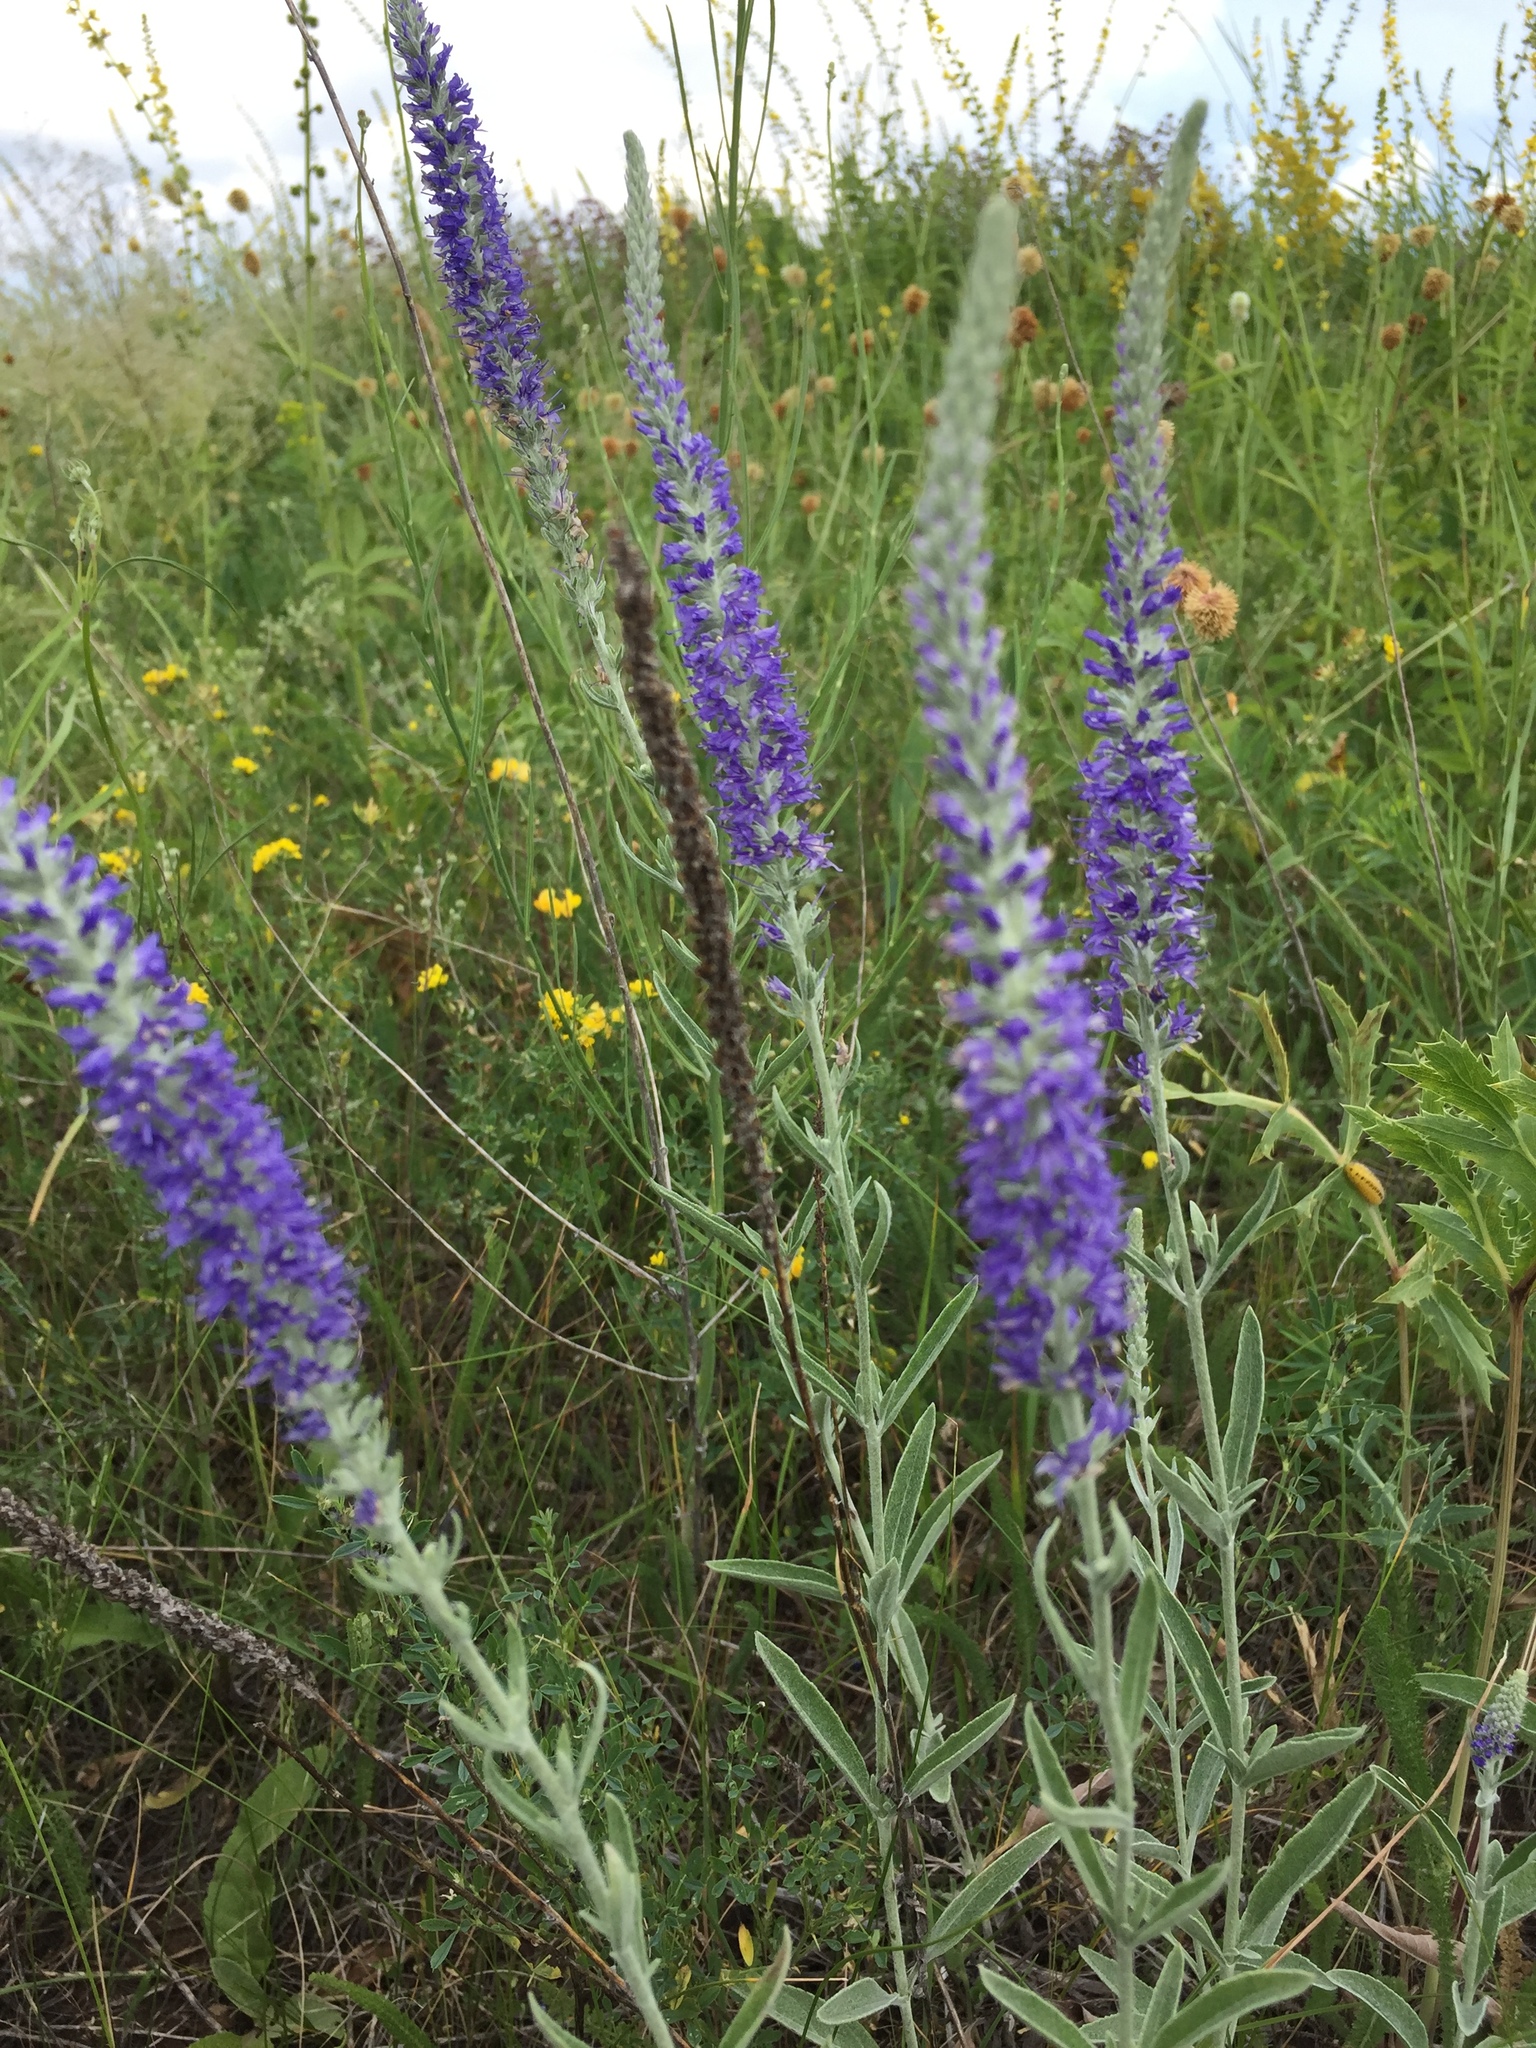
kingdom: Plantae
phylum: Tracheophyta
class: Magnoliopsida
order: Lamiales
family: Plantaginaceae
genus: Veronica
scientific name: Veronica incana
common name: Silver speedwell
